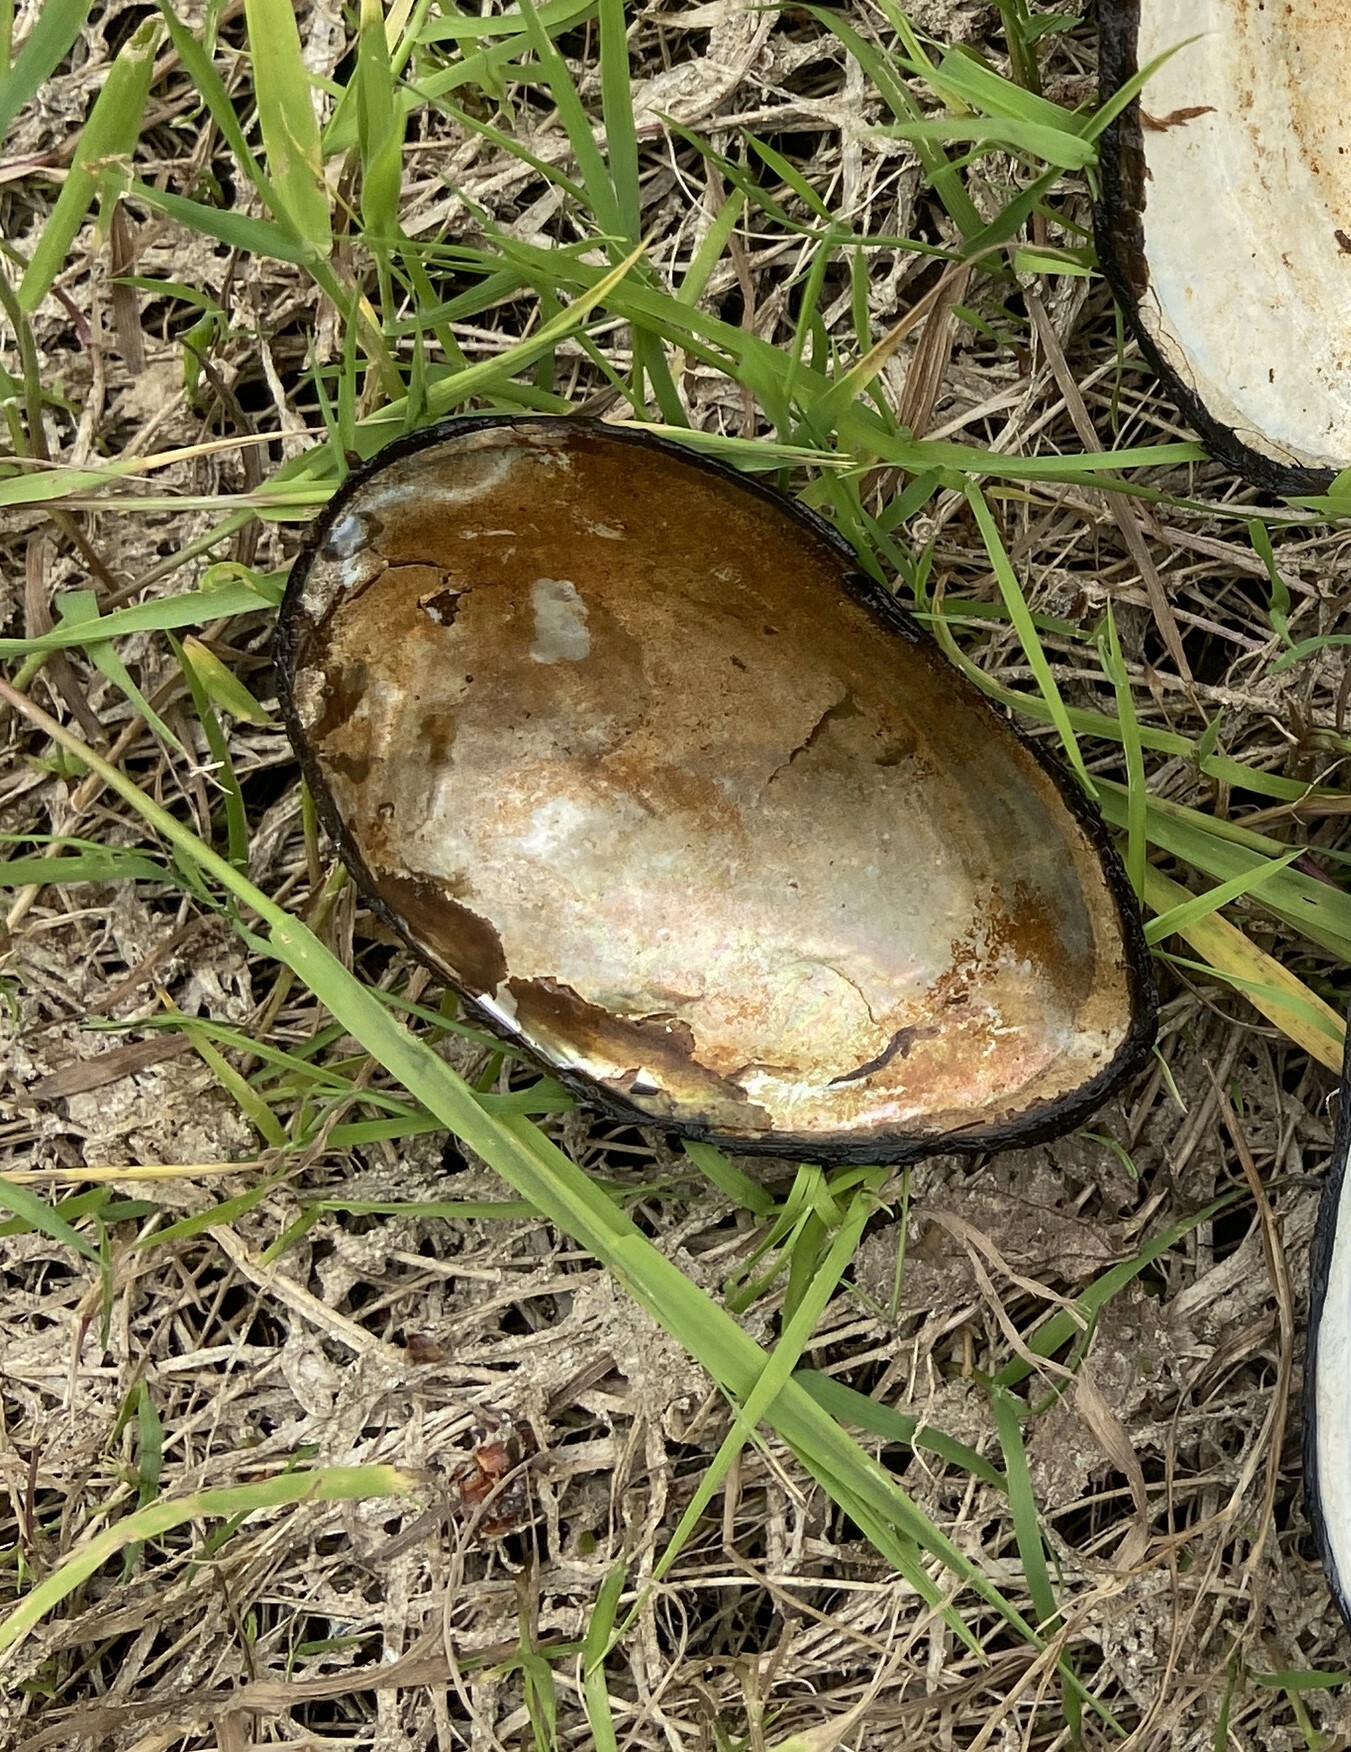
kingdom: Animalia
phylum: Mollusca
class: Bivalvia
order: Unionida
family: Unionidae
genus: Anodonta
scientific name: Anodonta anatina
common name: Duck mussel
